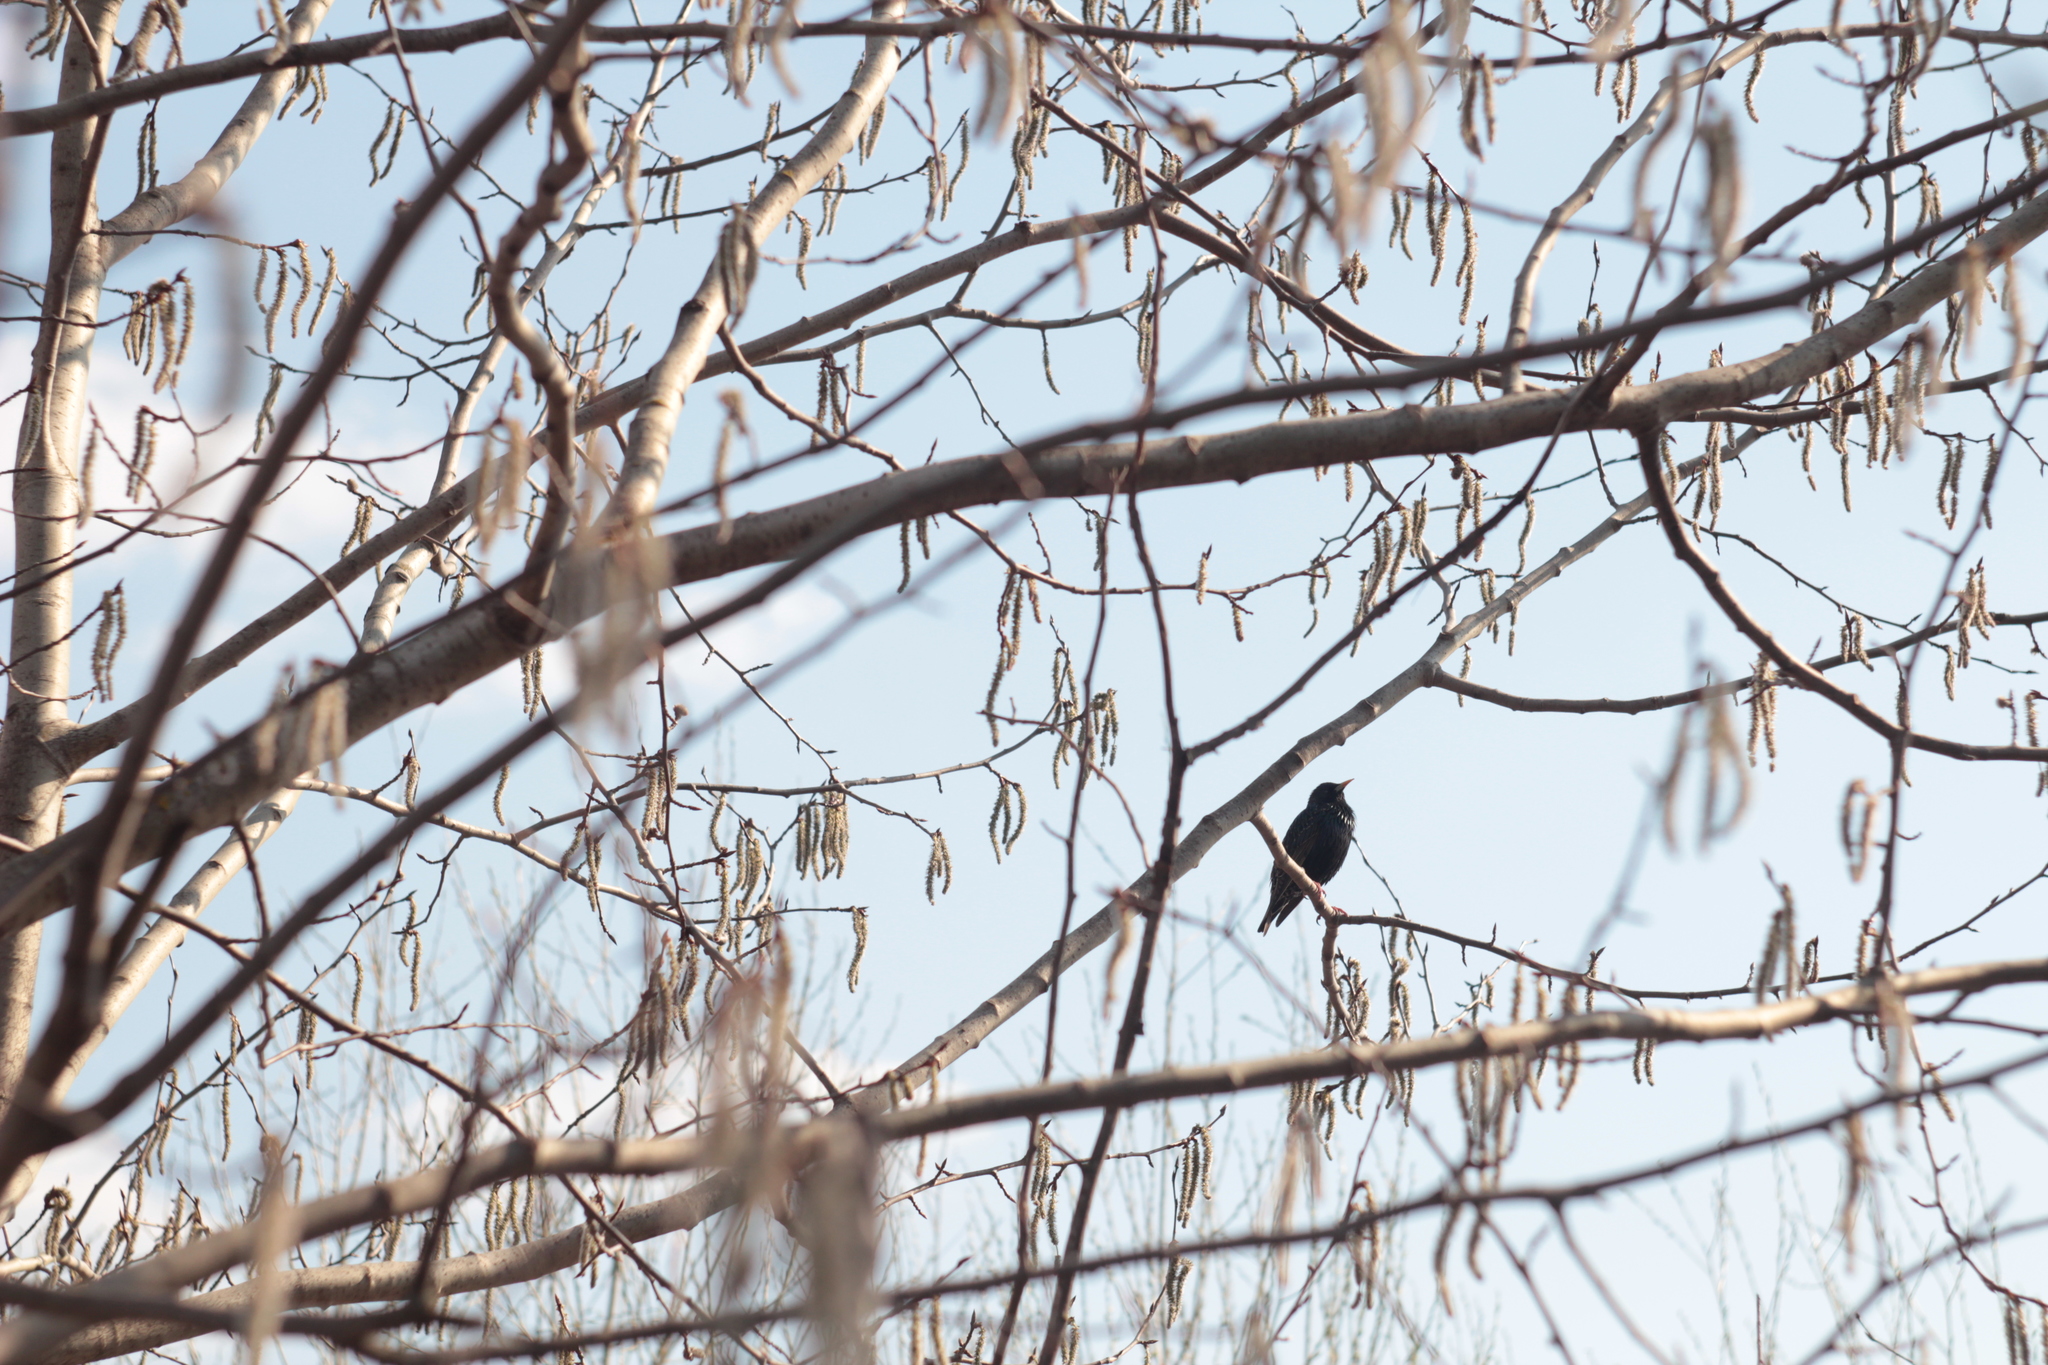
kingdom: Animalia
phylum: Chordata
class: Aves
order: Passeriformes
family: Sturnidae
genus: Sturnus
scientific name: Sturnus vulgaris
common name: Common starling
